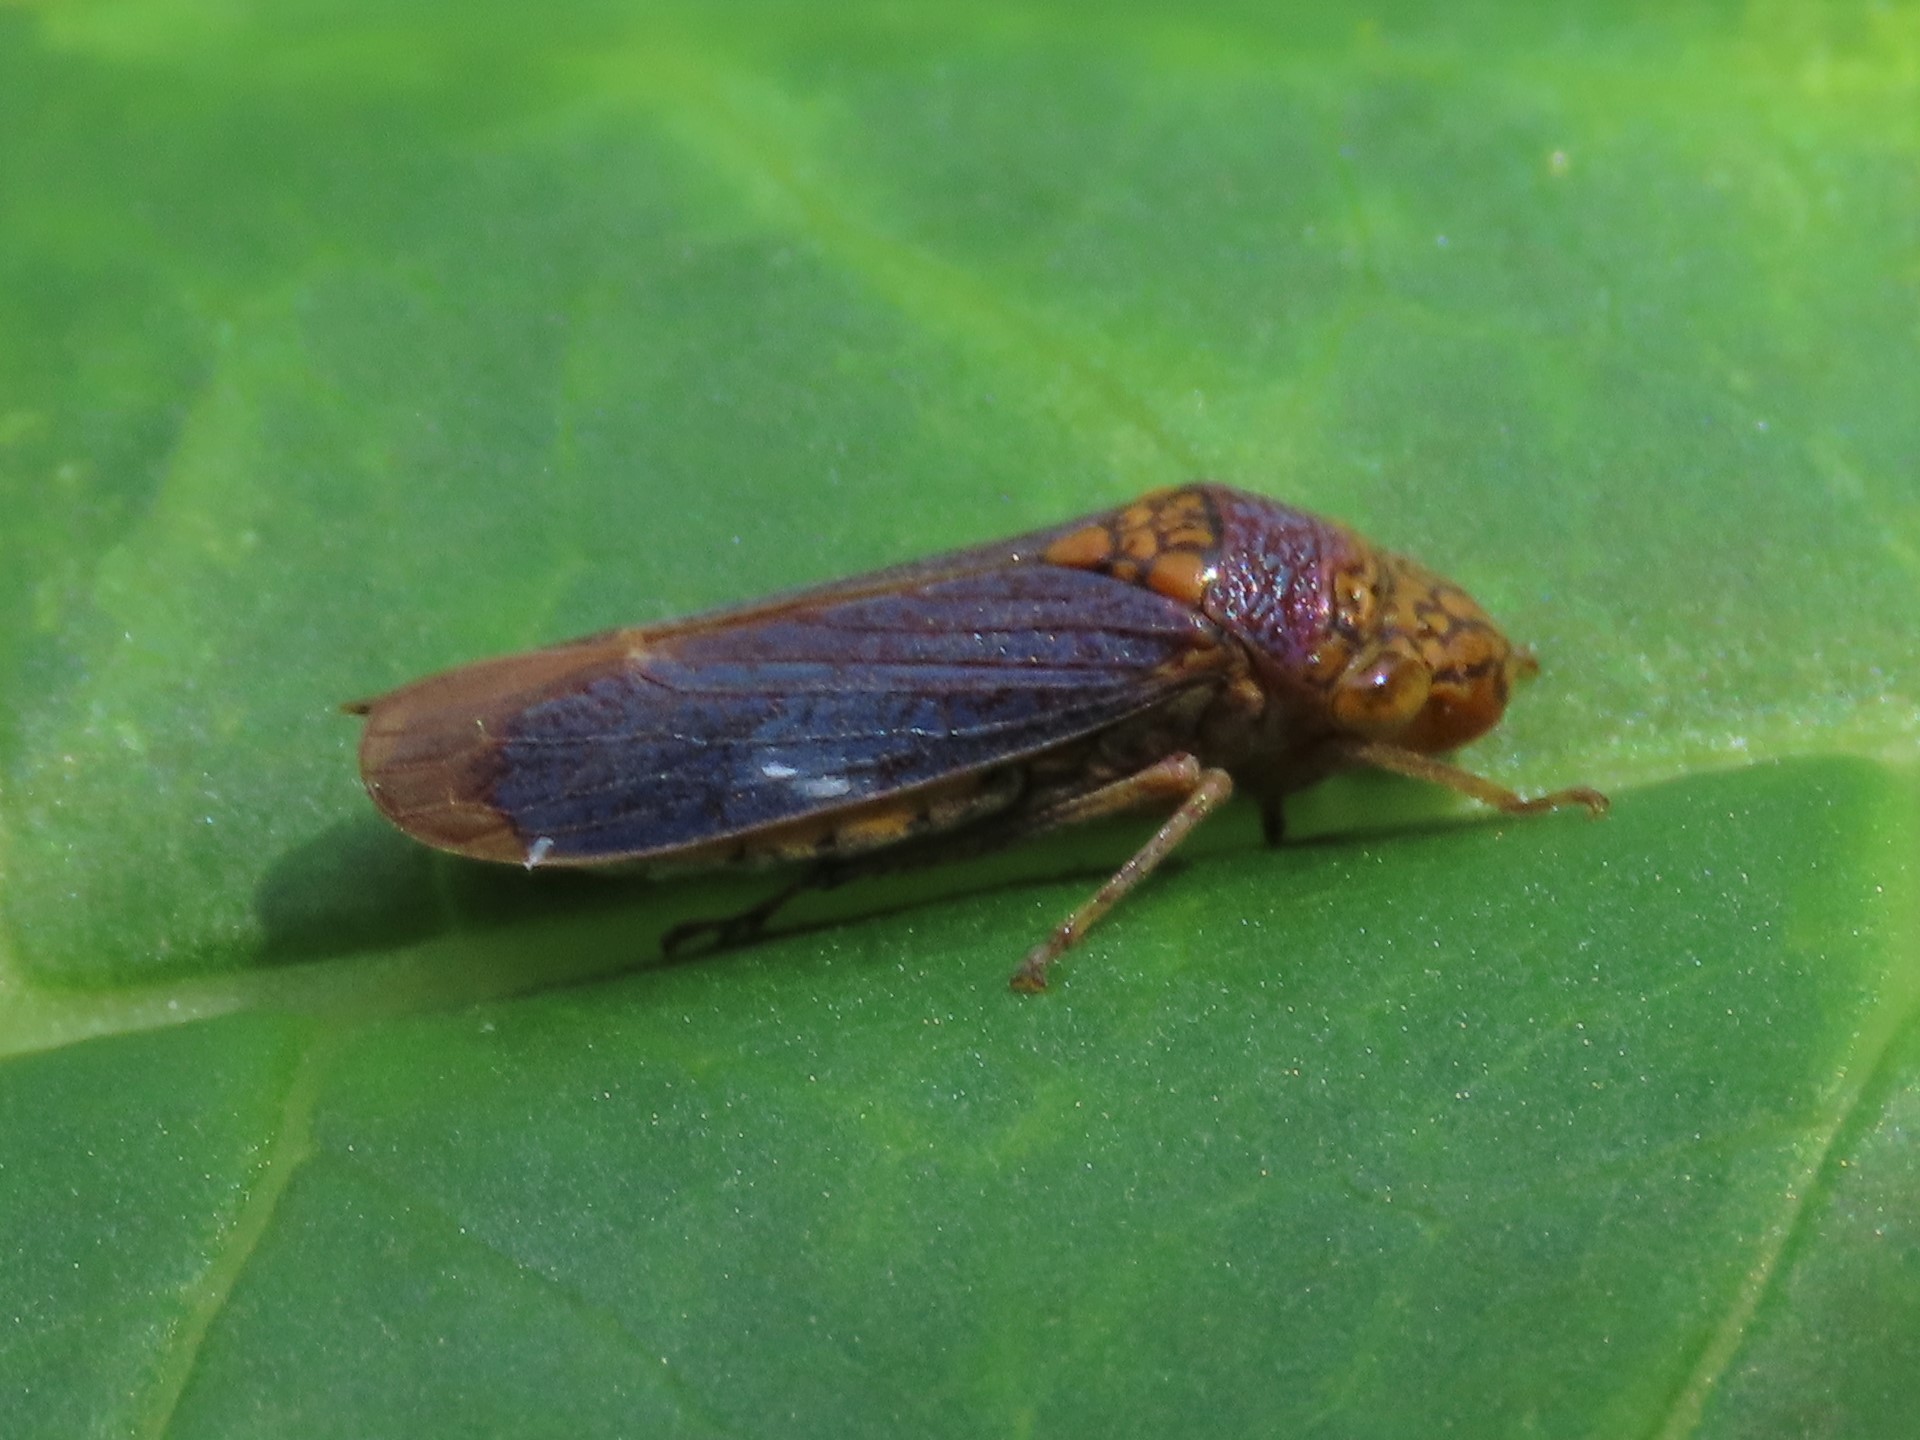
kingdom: Animalia
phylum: Arthropoda
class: Insecta
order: Hemiptera
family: Cicadellidae
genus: Oncometopia
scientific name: Oncometopia orbona
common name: Broad-headed sharpshooter
